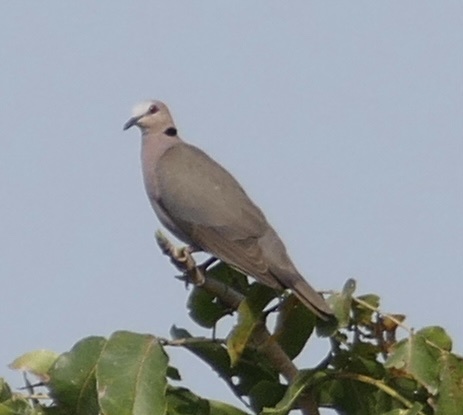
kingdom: Animalia
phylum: Chordata
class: Aves
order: Columbiformes
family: Columbidae
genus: Streptopelia
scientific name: Streptopelia semitorquata
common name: Red-eyed dove
